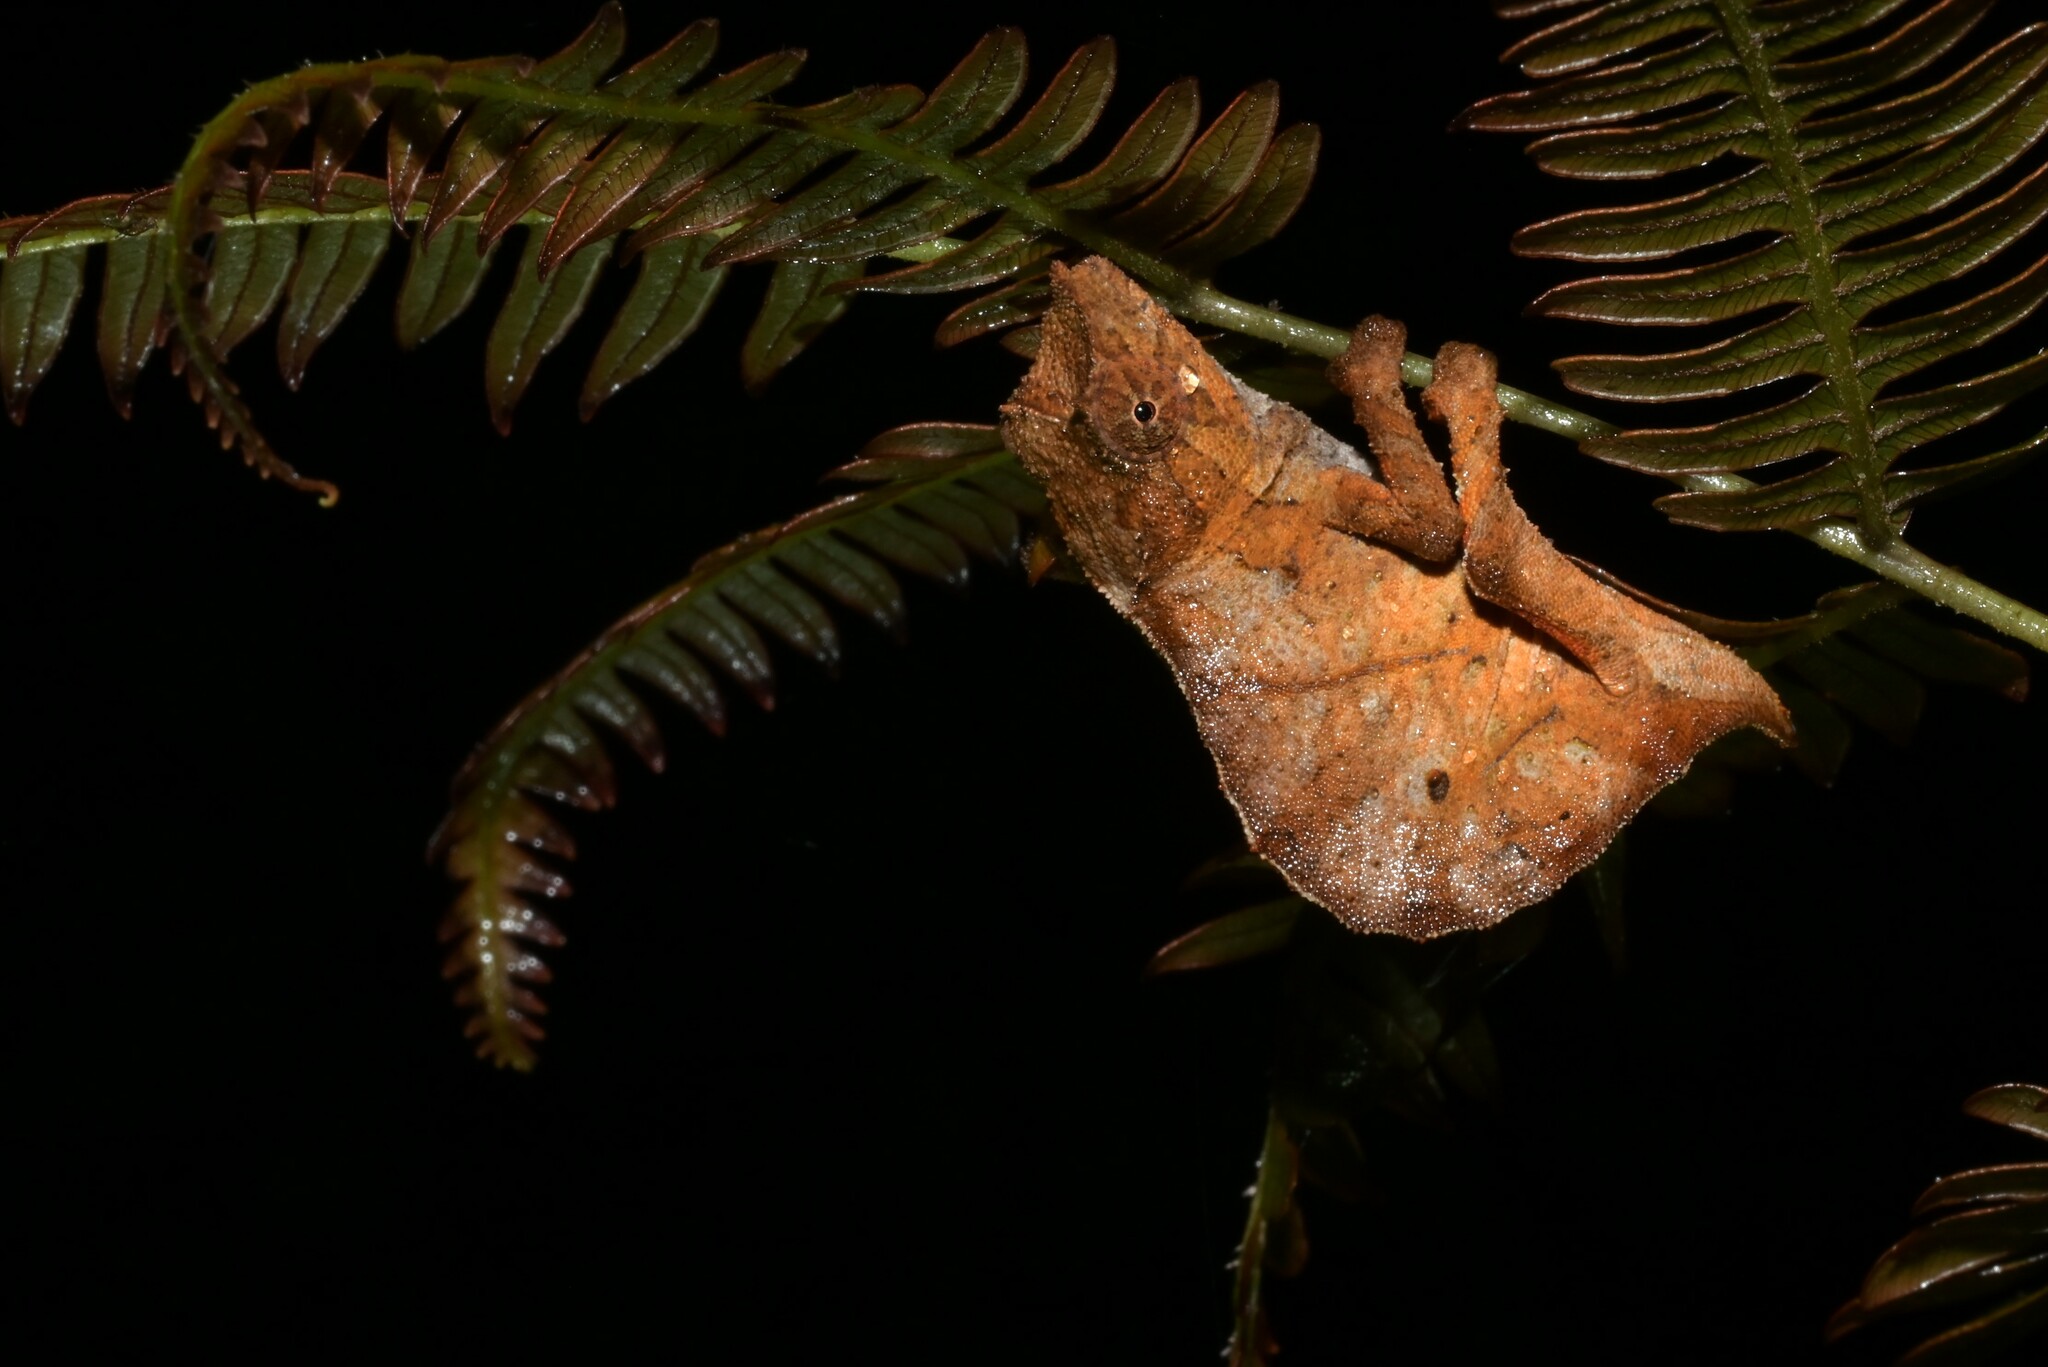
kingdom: Animalia
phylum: Chordata
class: Squamata
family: Chamaeleonidae
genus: Rhampholeon
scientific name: Rhampholeon nchisiensis
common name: South african stumptail chameleon
